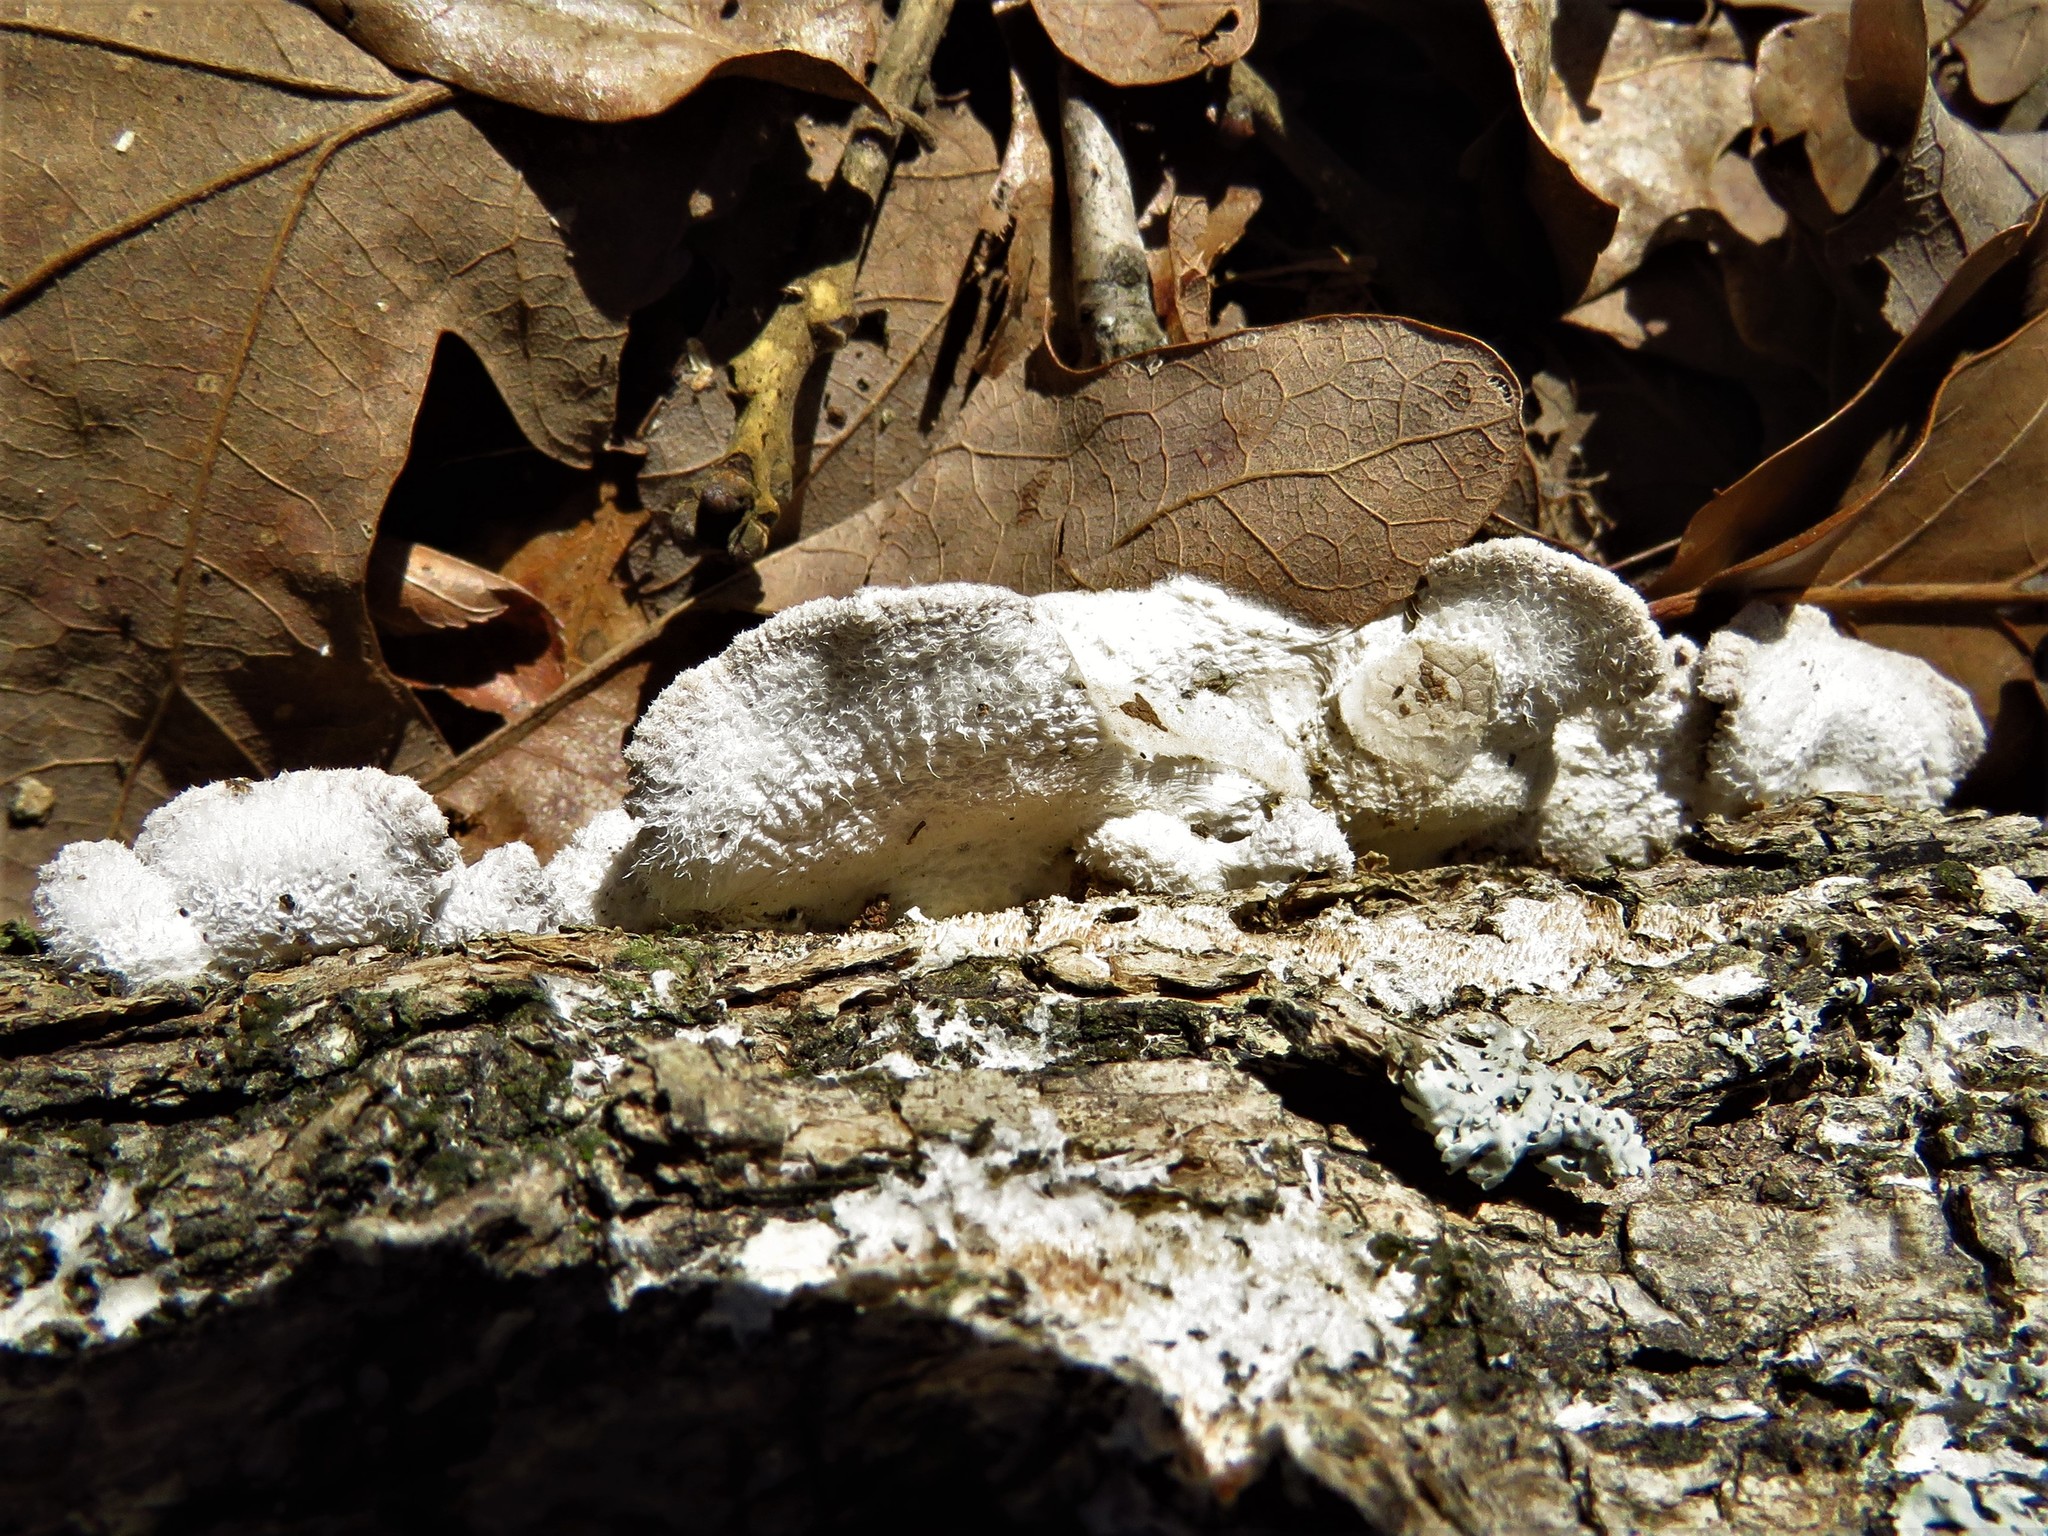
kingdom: Fungi
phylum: Basidiomycota
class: Agaricomycetes
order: Agaricales
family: Schizophyllaceae
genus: Schizophyllum
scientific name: Schizophyllum commune
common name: Common porecrust
